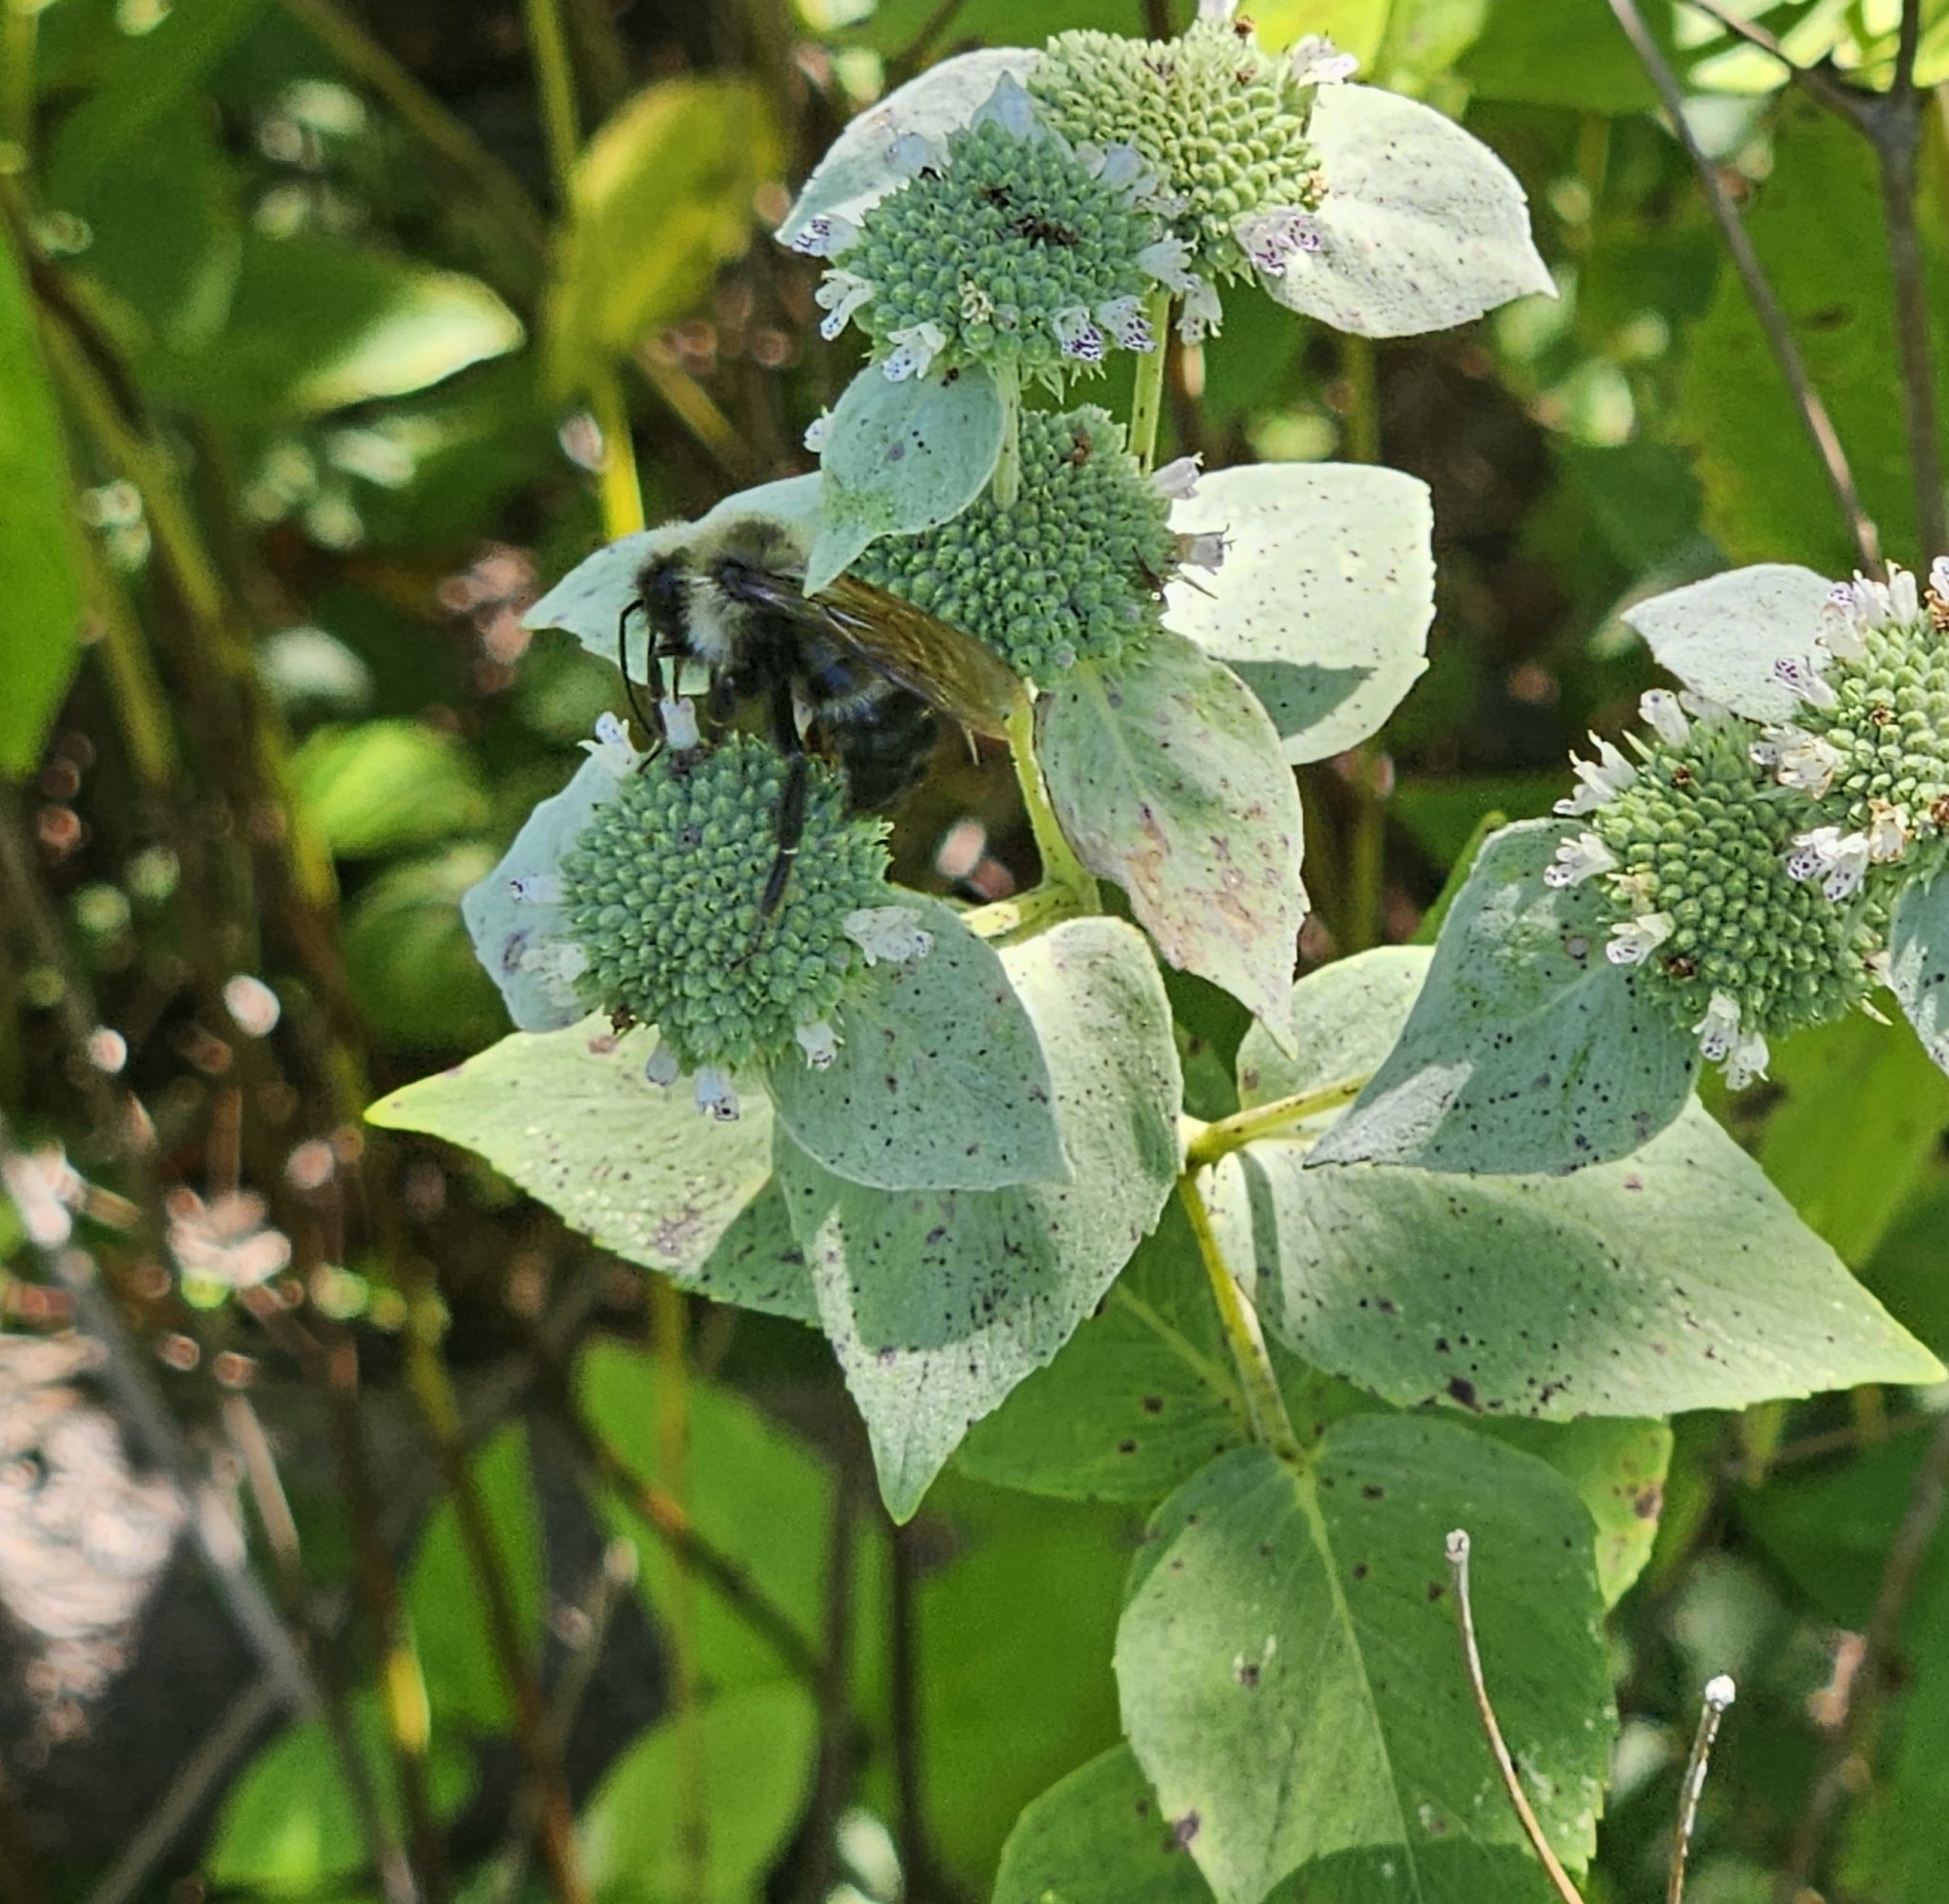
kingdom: Animalia
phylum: Arthropoda
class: Insecta
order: Hymenoptera
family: Apidae
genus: Bombus
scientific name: Bombus citrinus
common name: Lemon cuckoo bumble bee
